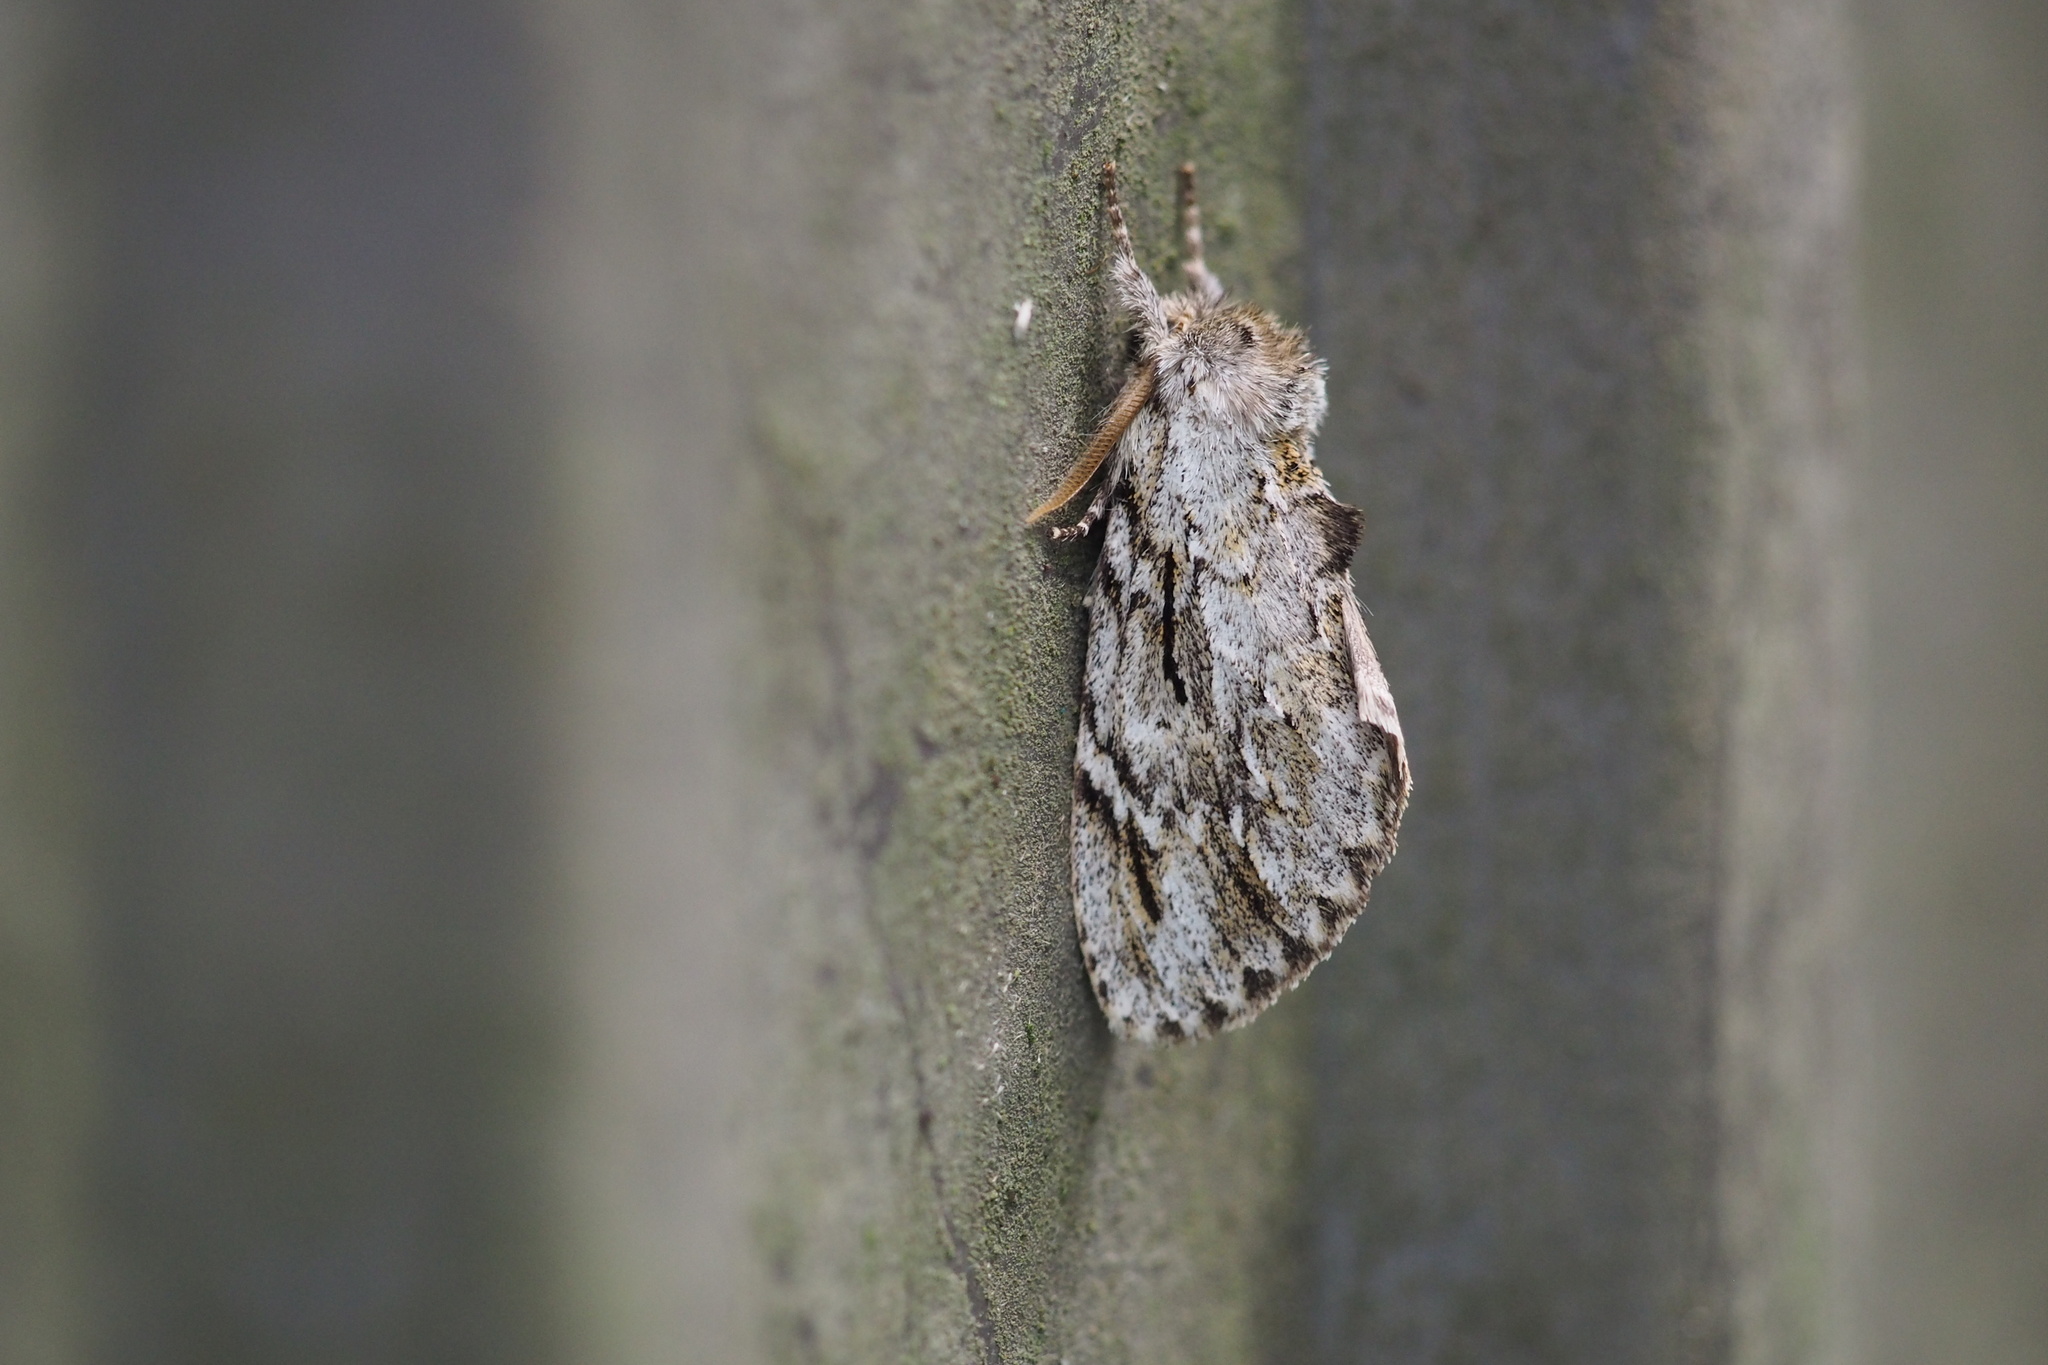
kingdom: Animalia
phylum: Arthropoda
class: Insecta
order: Lepidoptera
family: Notodontidae
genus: Ptilodon
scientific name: Ptilodon grisea
